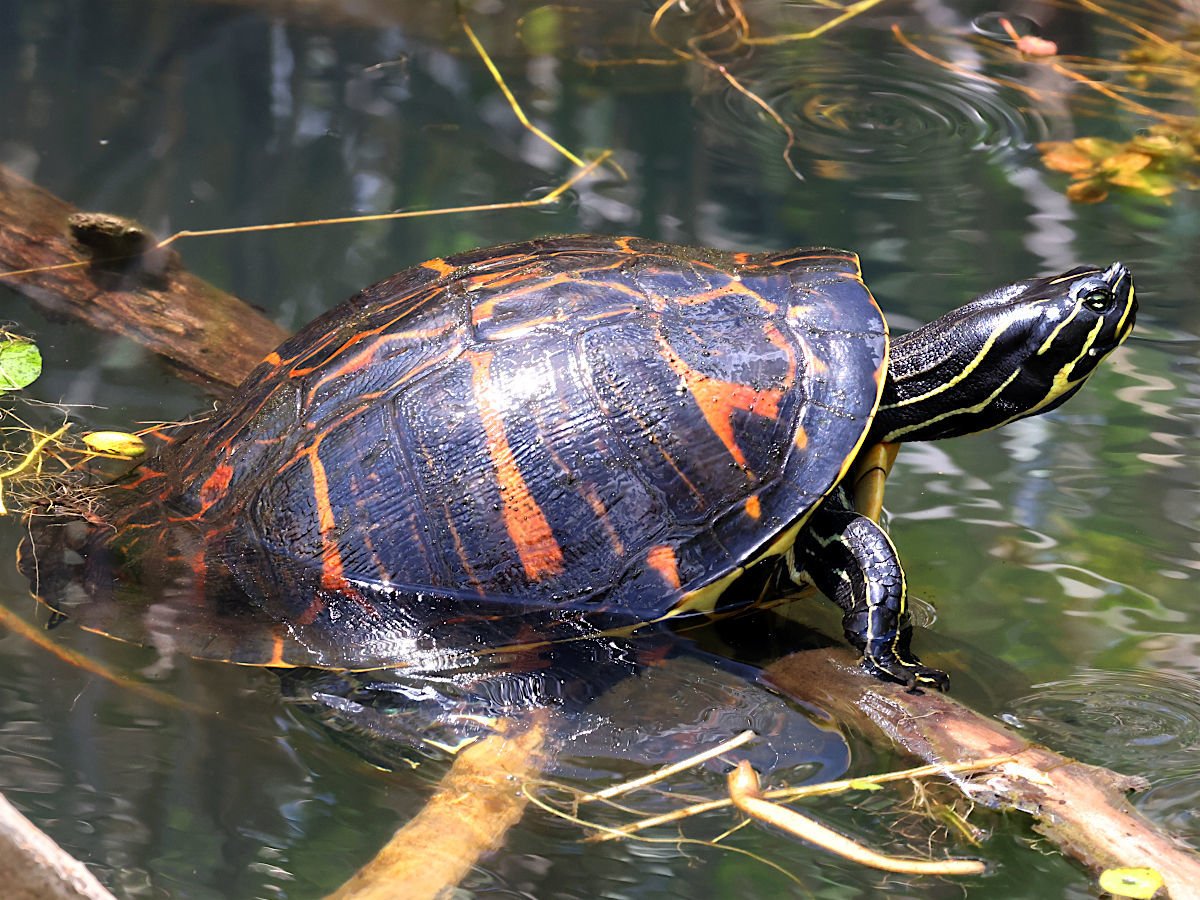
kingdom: Animalia
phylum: Chordata
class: Testudines
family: Emydidae
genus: Pseudemys
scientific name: Pseudemys nelsoni
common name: Florida red-bellied turtle
